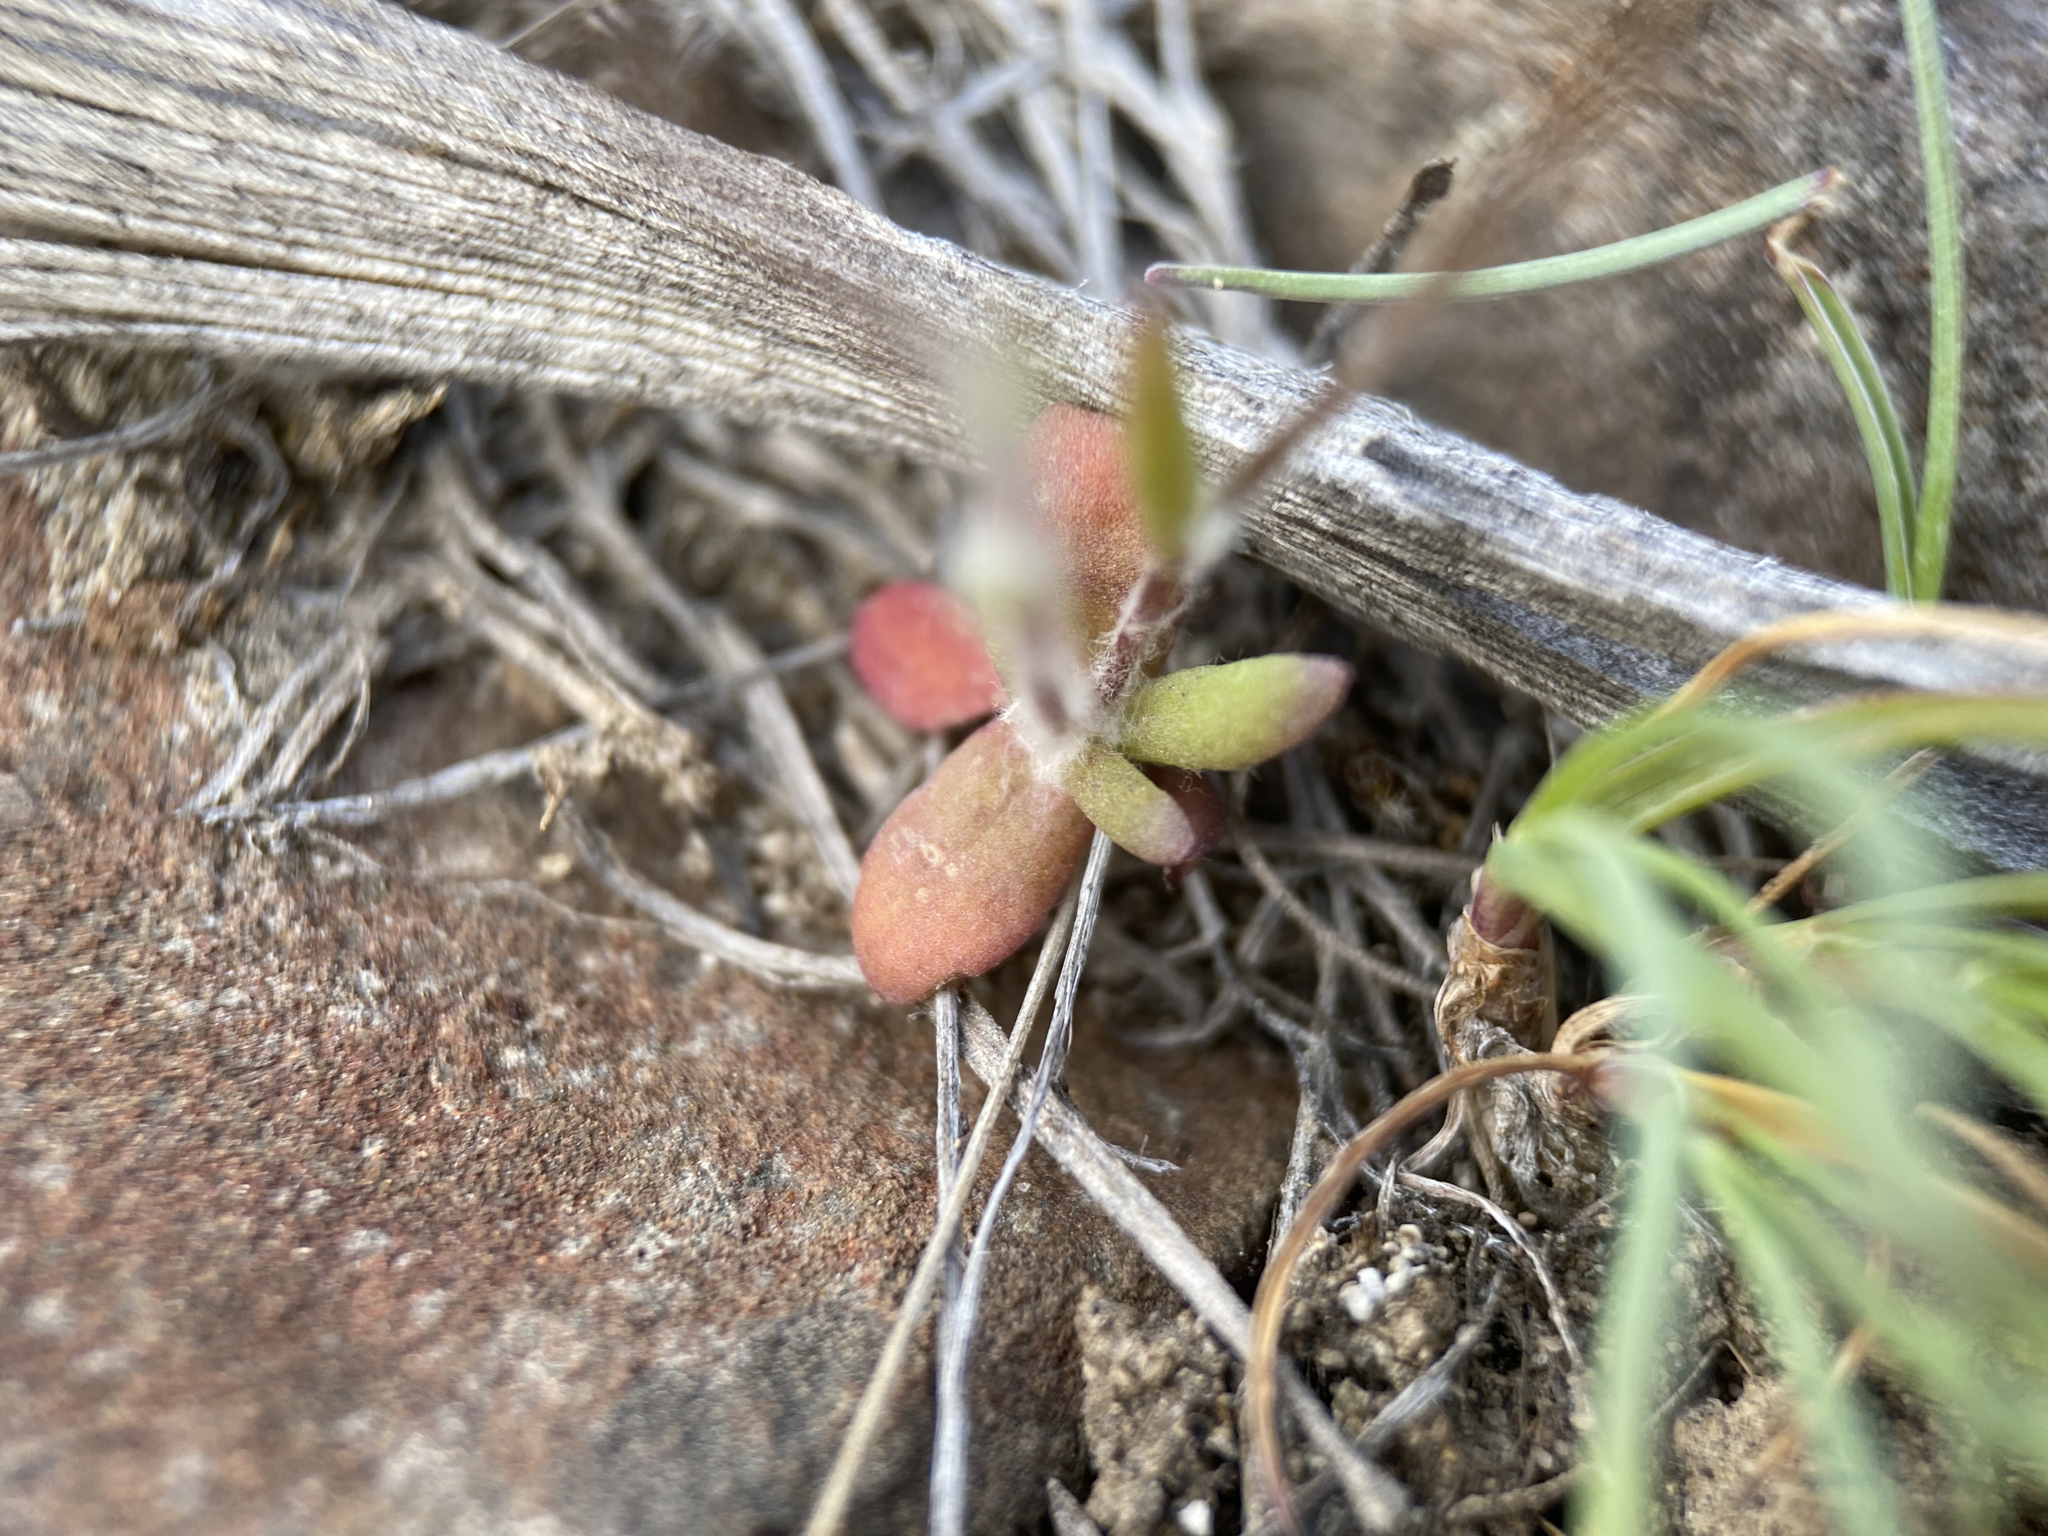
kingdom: Plantae
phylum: Tracheophyta
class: Magnoliopsida
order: Asterales
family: Asteraceae
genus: Crocidium
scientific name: Crocidium multicaule
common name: Common spring gold
